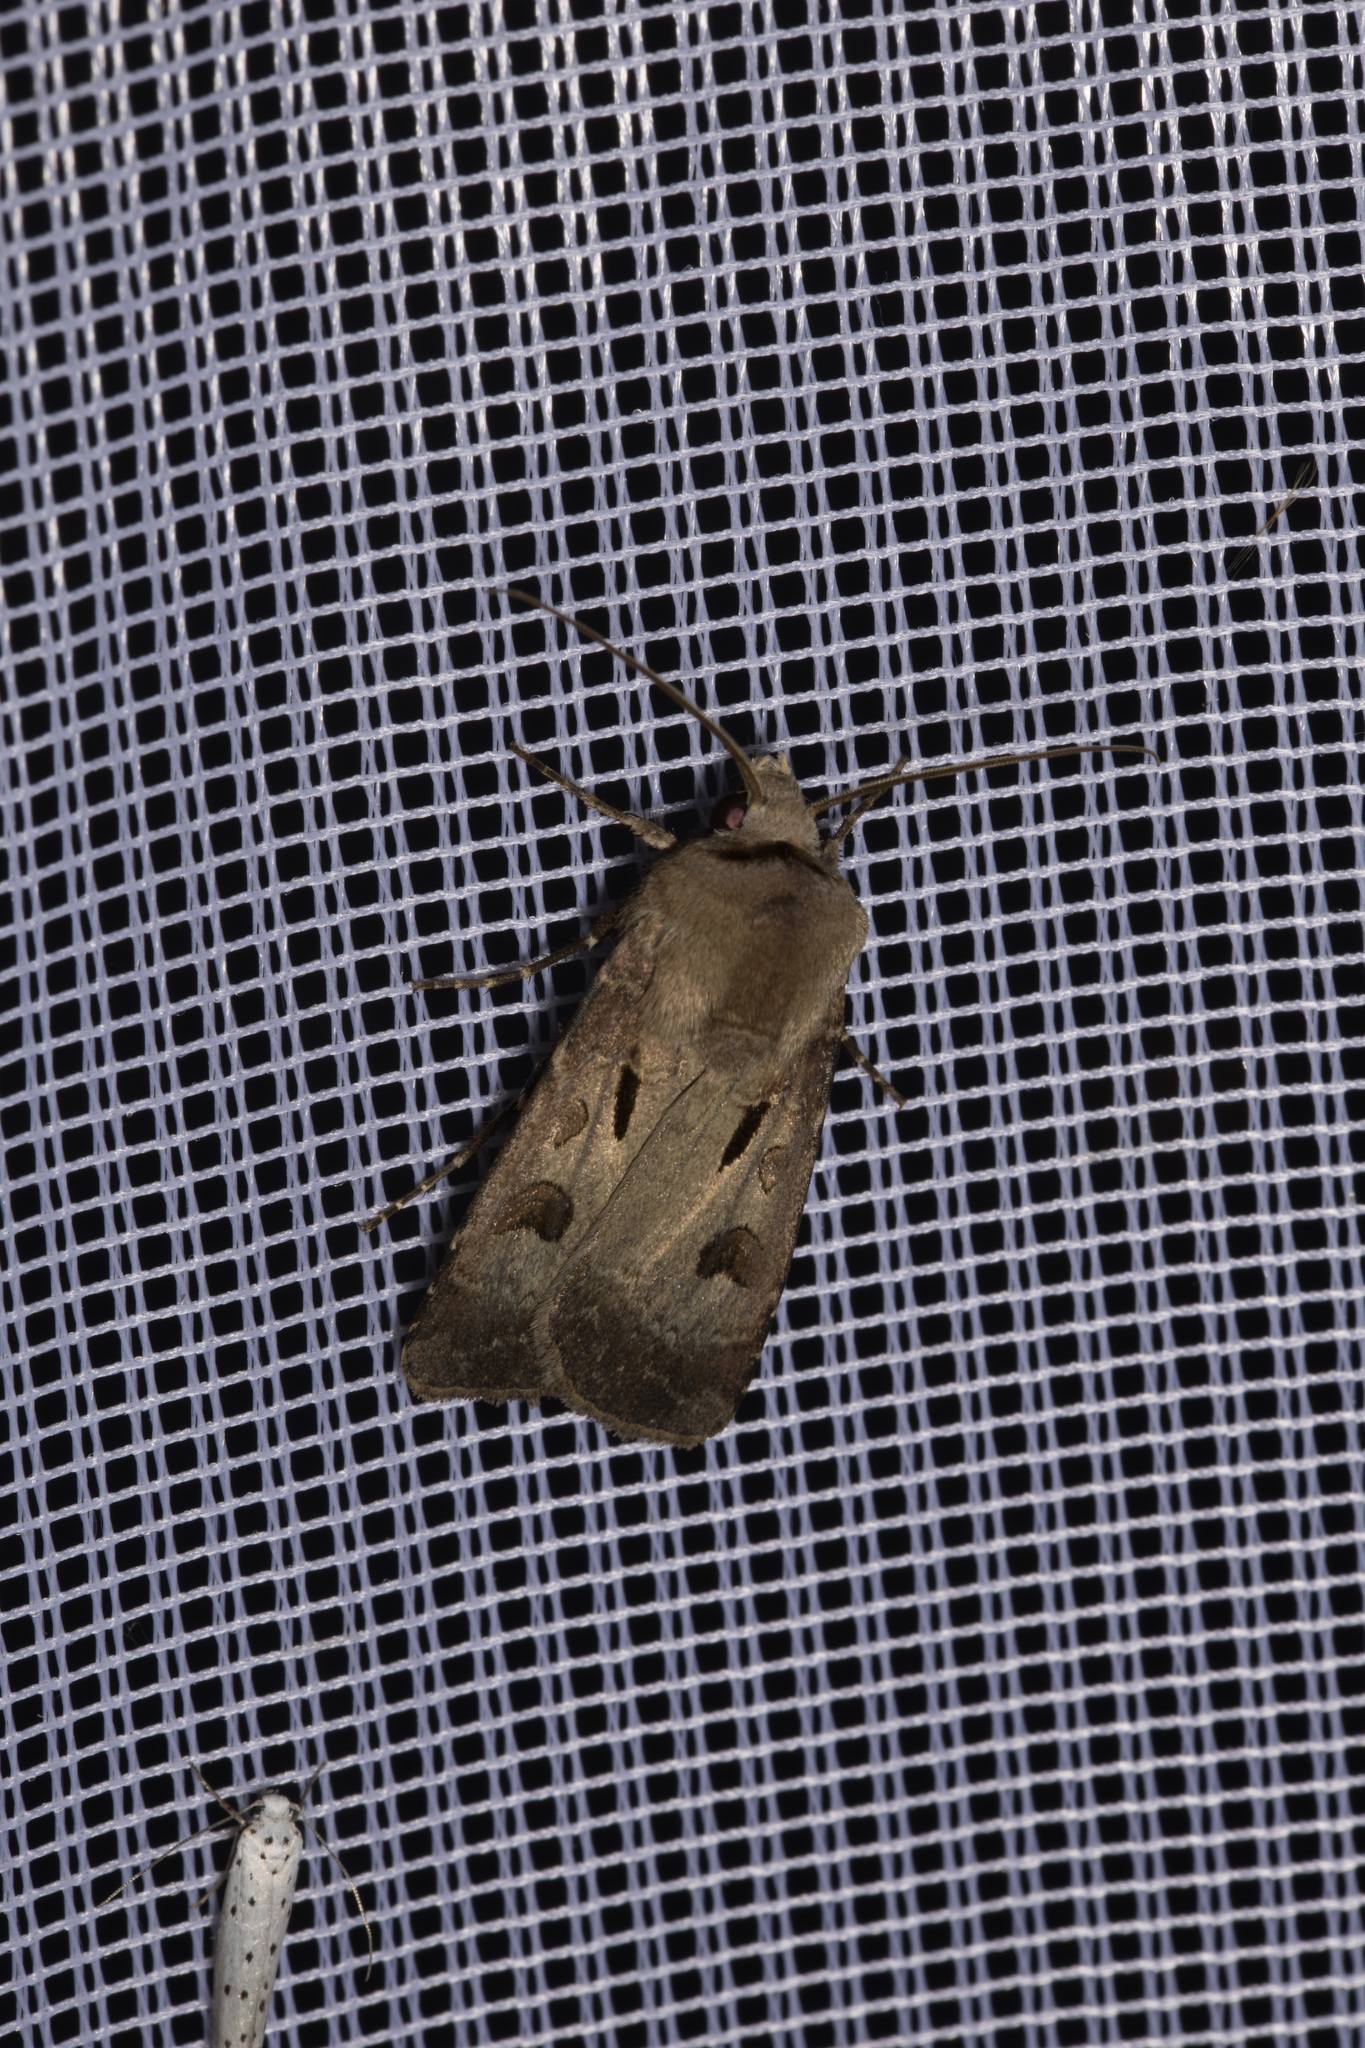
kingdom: Animalia
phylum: Arthropoda
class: Insecta
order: Lepidoptera
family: Noctuidae
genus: Agrotis
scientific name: Agrotis exclamationis
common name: Heart and dart
